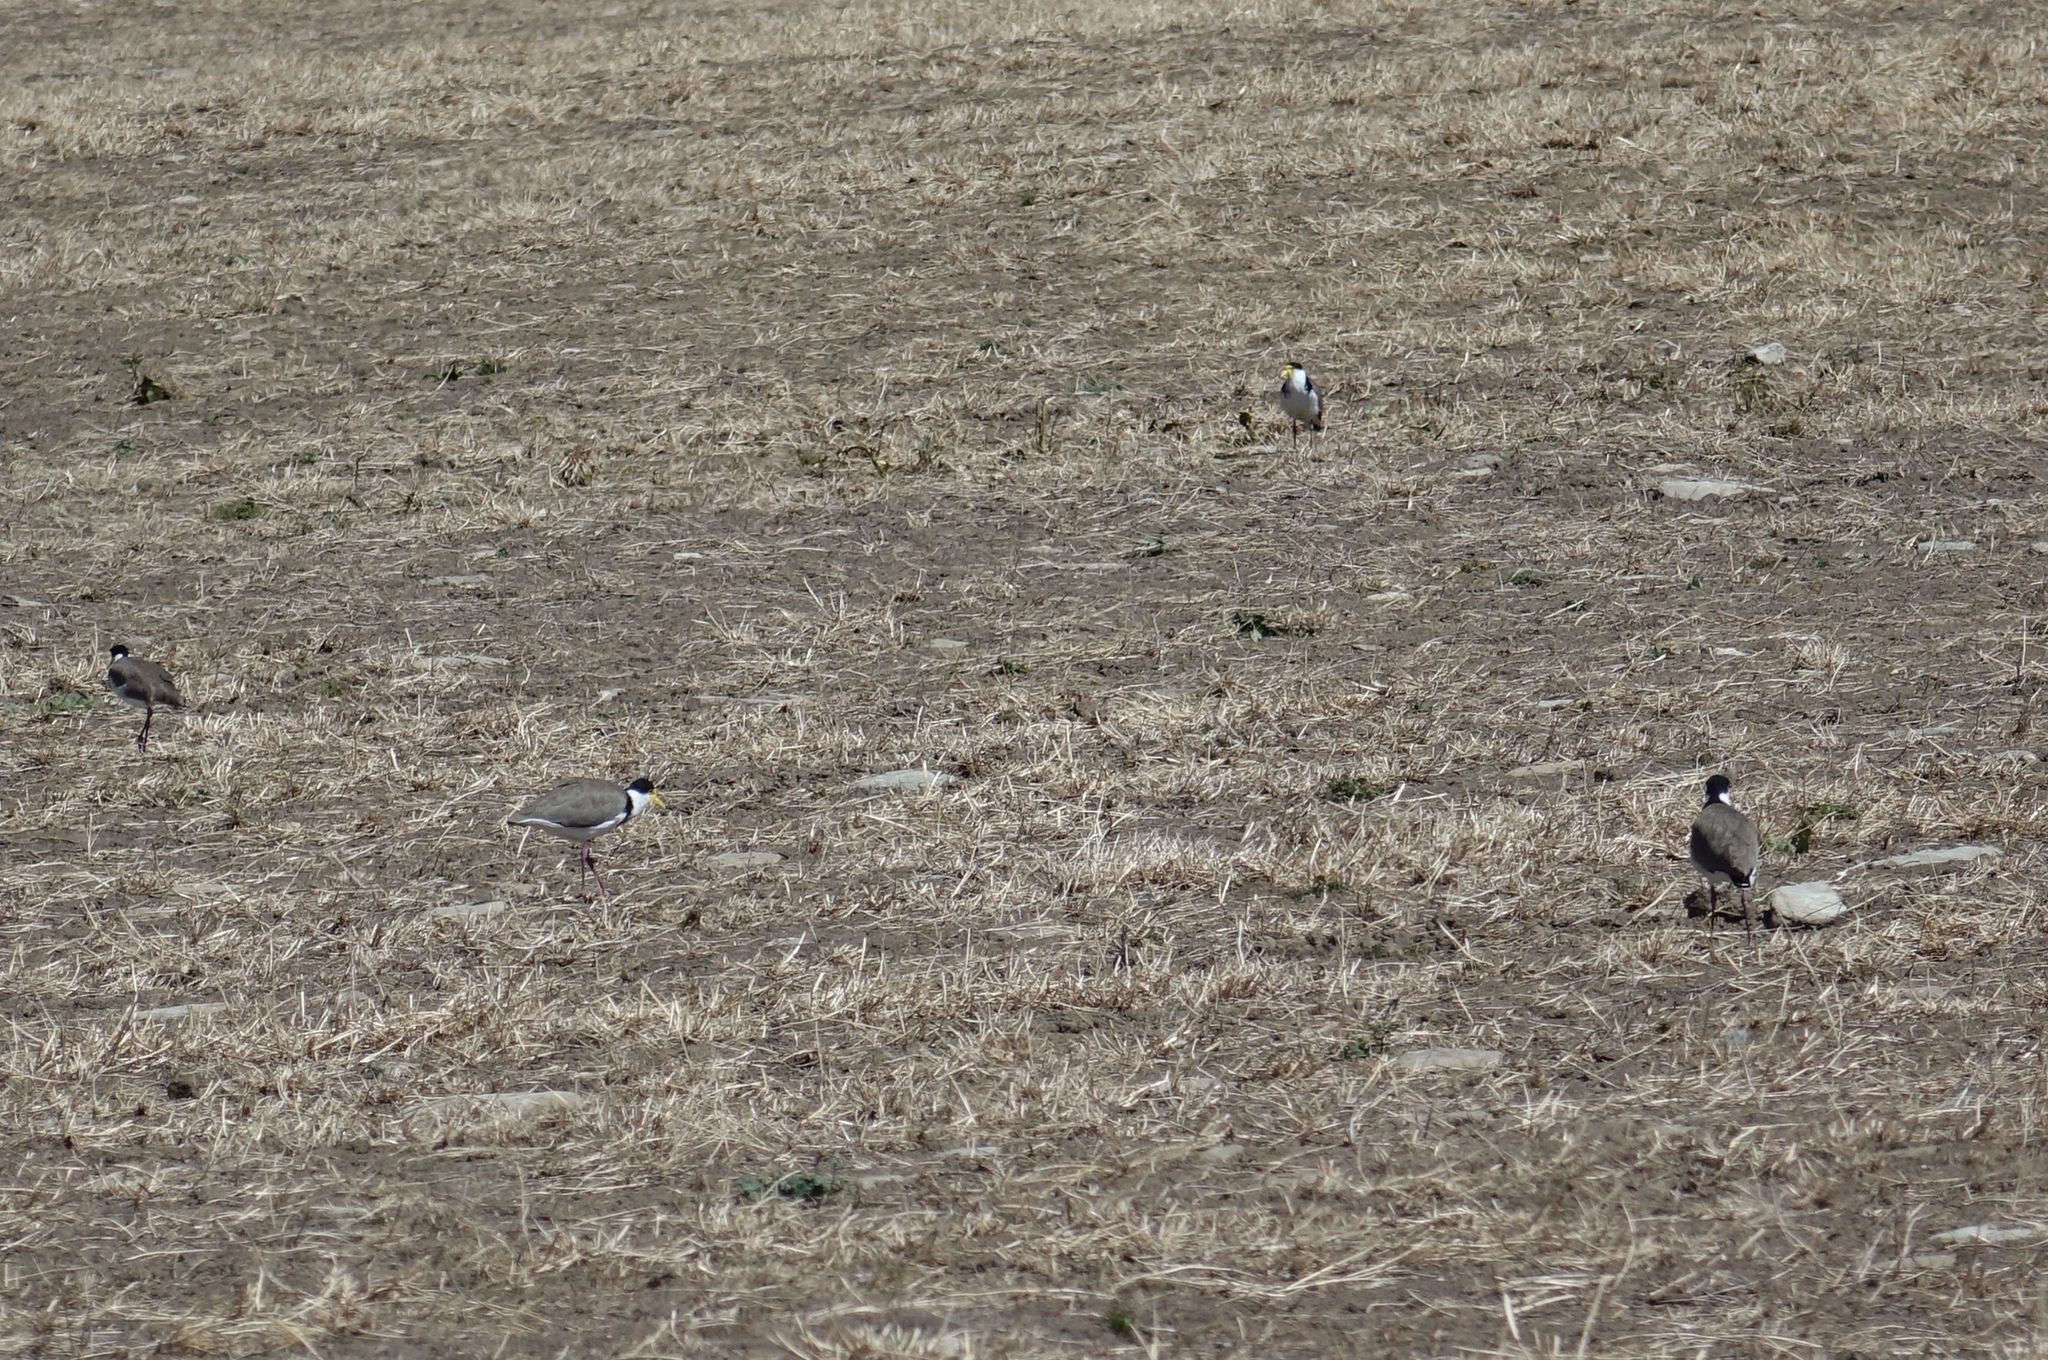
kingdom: Animalia
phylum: Chordata
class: Aves
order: Charadriiformes
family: Charadriidae
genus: Vanellus
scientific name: Vanellus miles
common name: Masked lapwing
